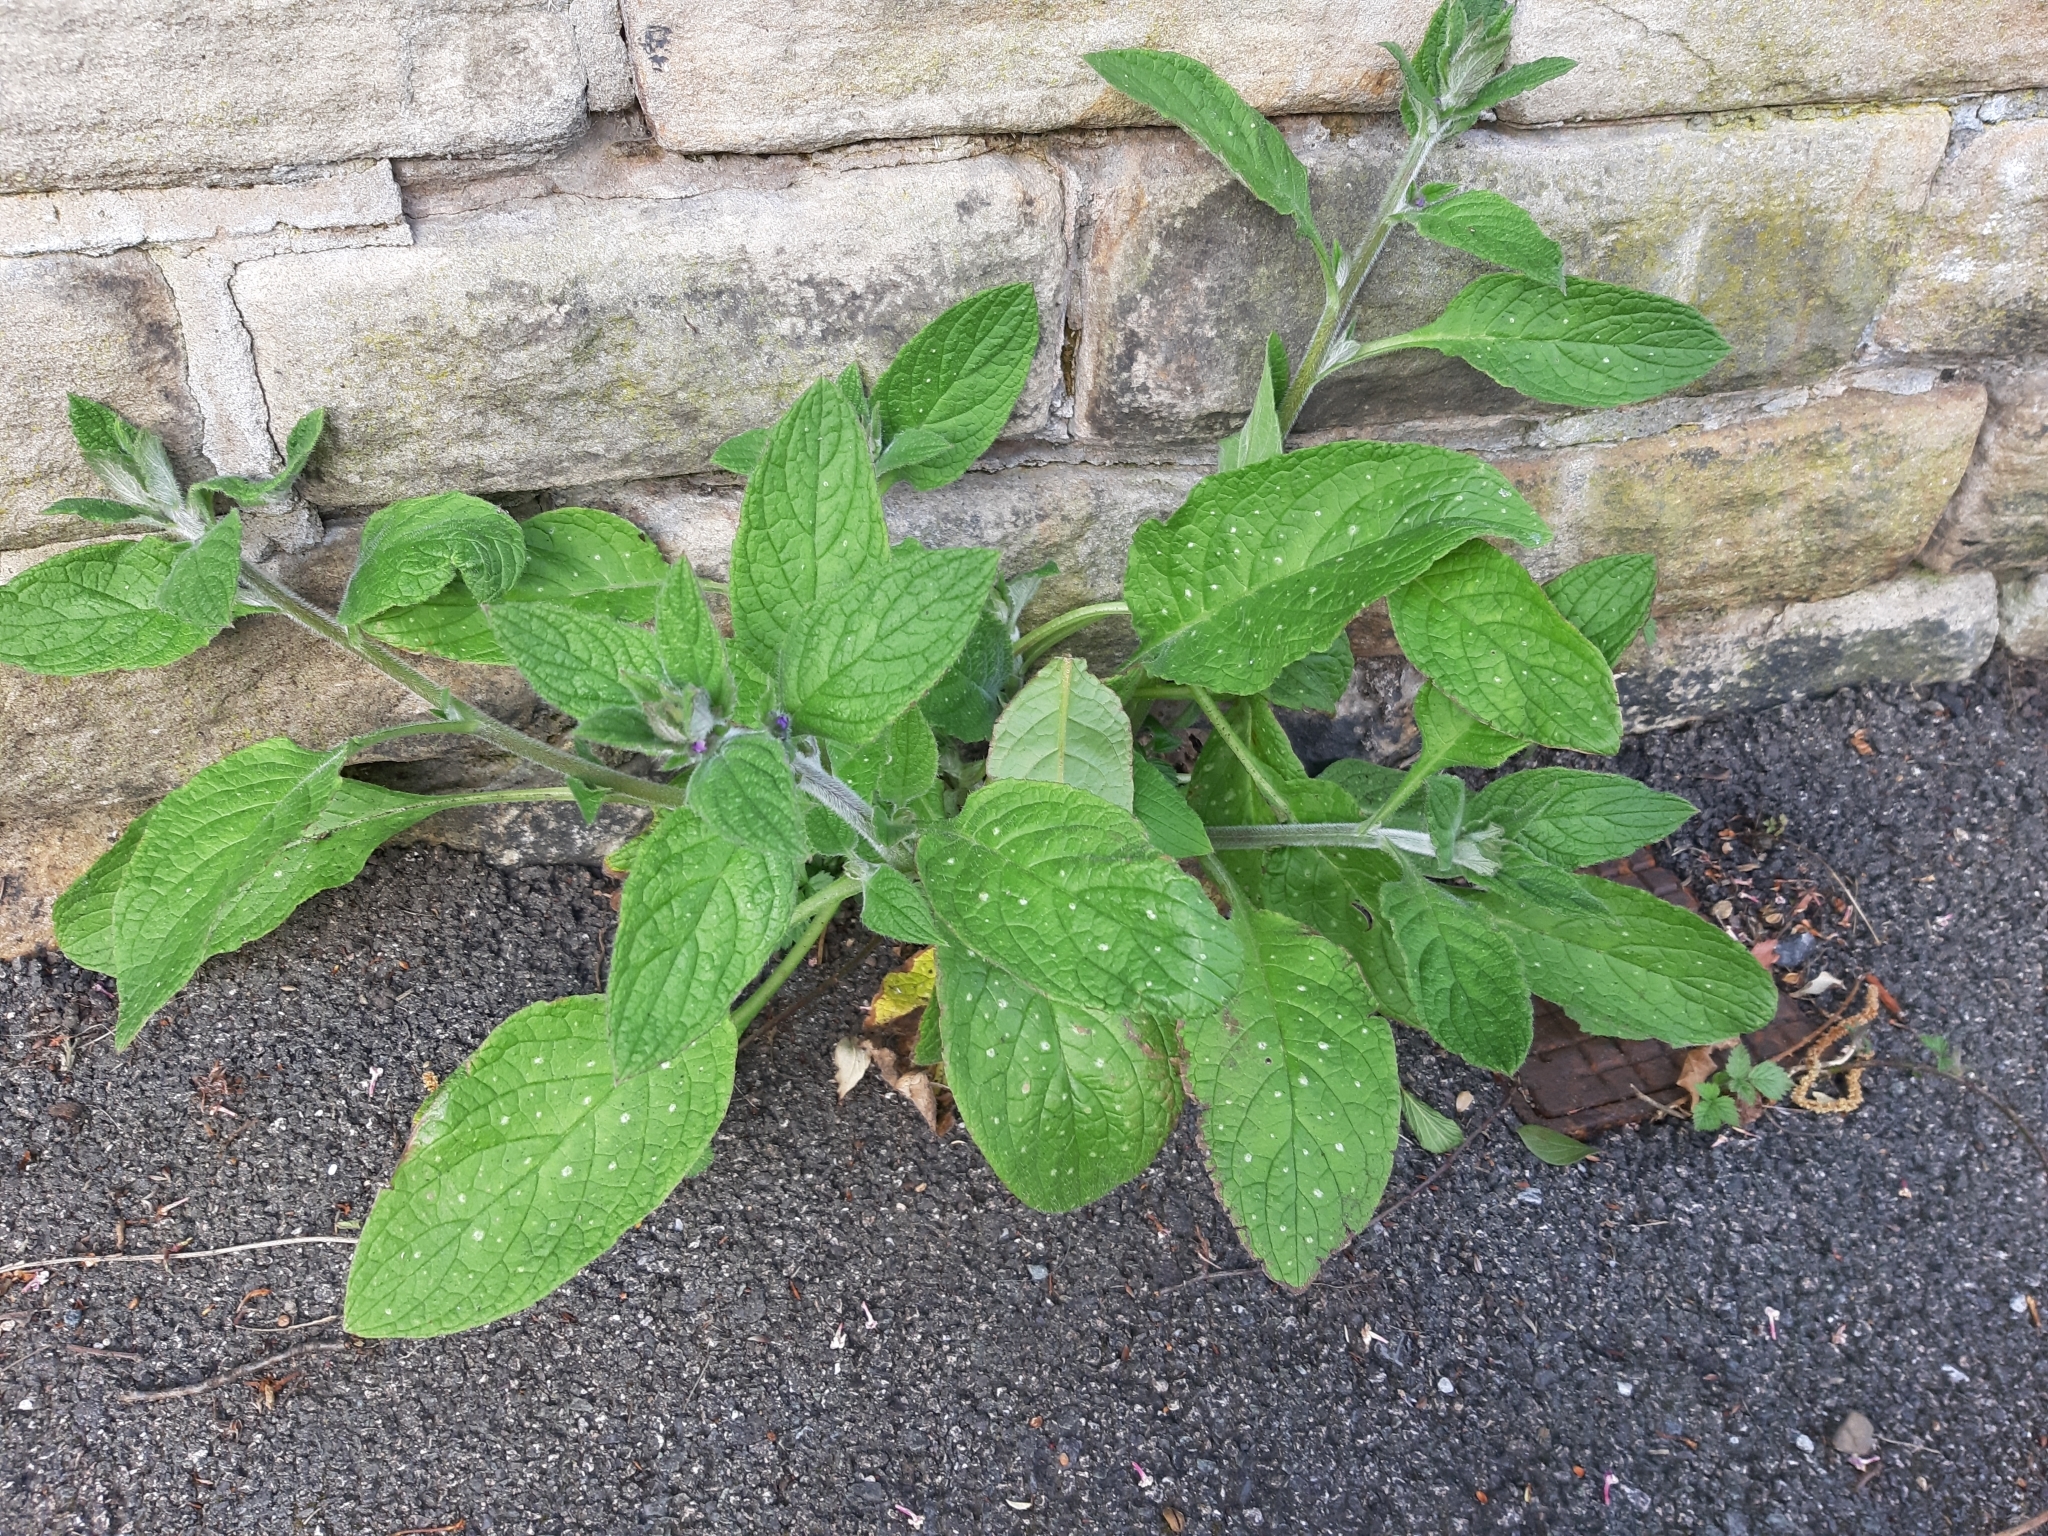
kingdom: Plantae
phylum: Tracheophyta
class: Magnoliopsida
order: Boraginales
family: Boraginaceae
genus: Pentaglottis
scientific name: Pentaglottis sempervirens
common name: Green alkanet
